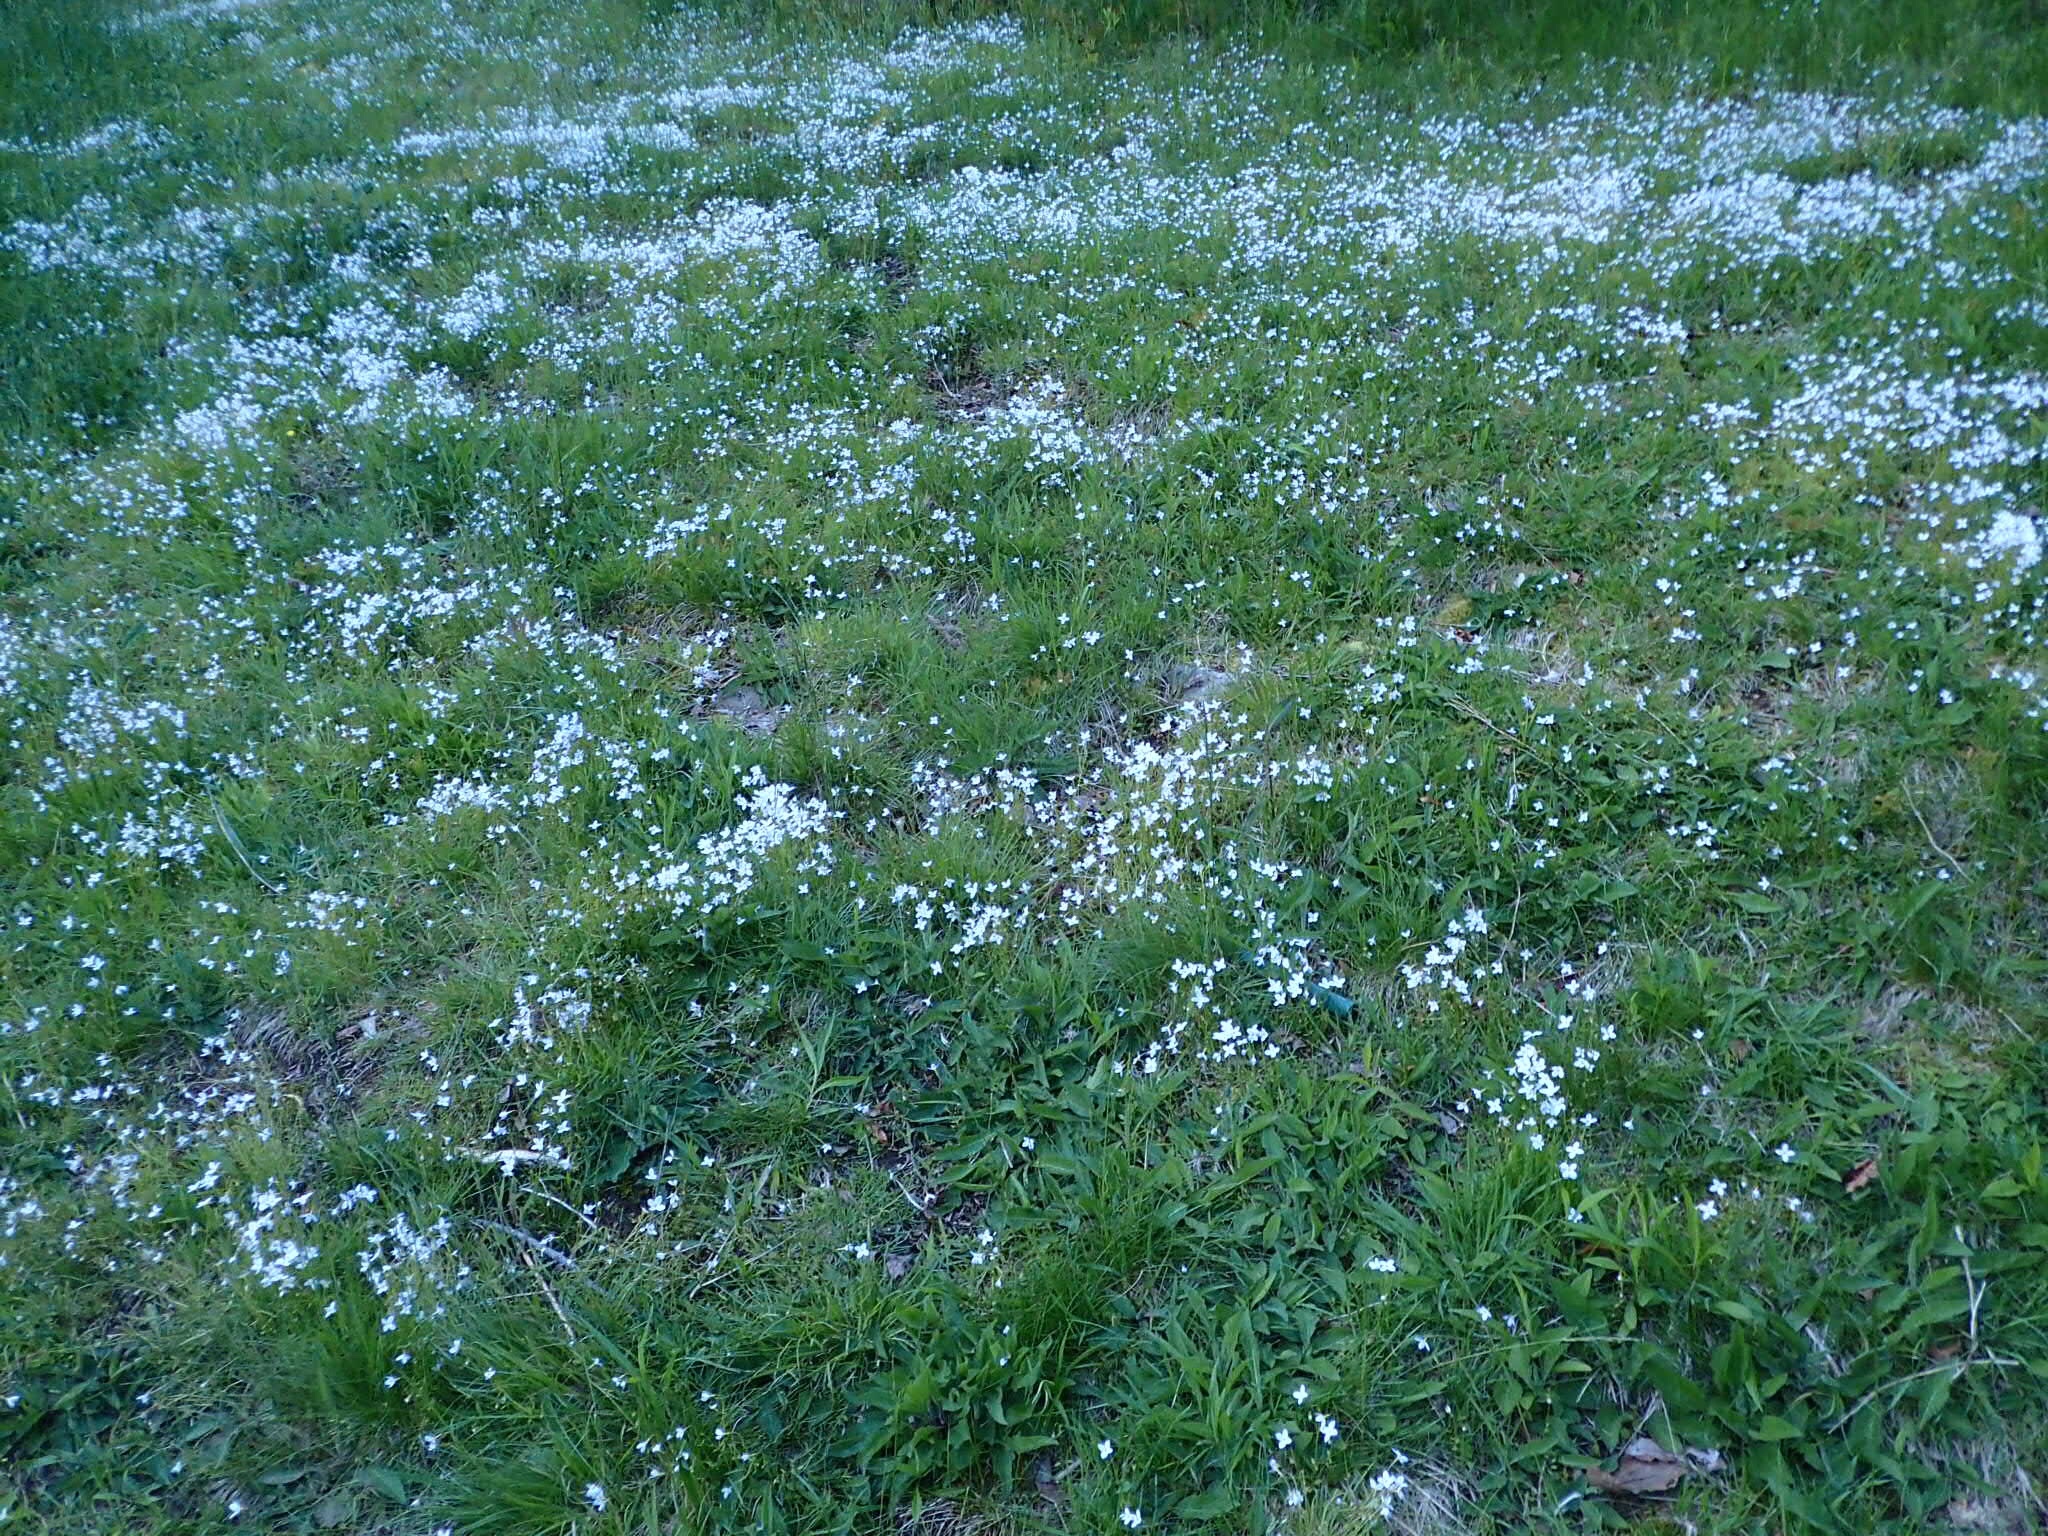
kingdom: Plantae
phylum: Tracheophyta
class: Magnoliopsida
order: Gentianales
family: Rubiaceae
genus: Houstonia
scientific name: Houstonia caerulea
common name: Bluets
